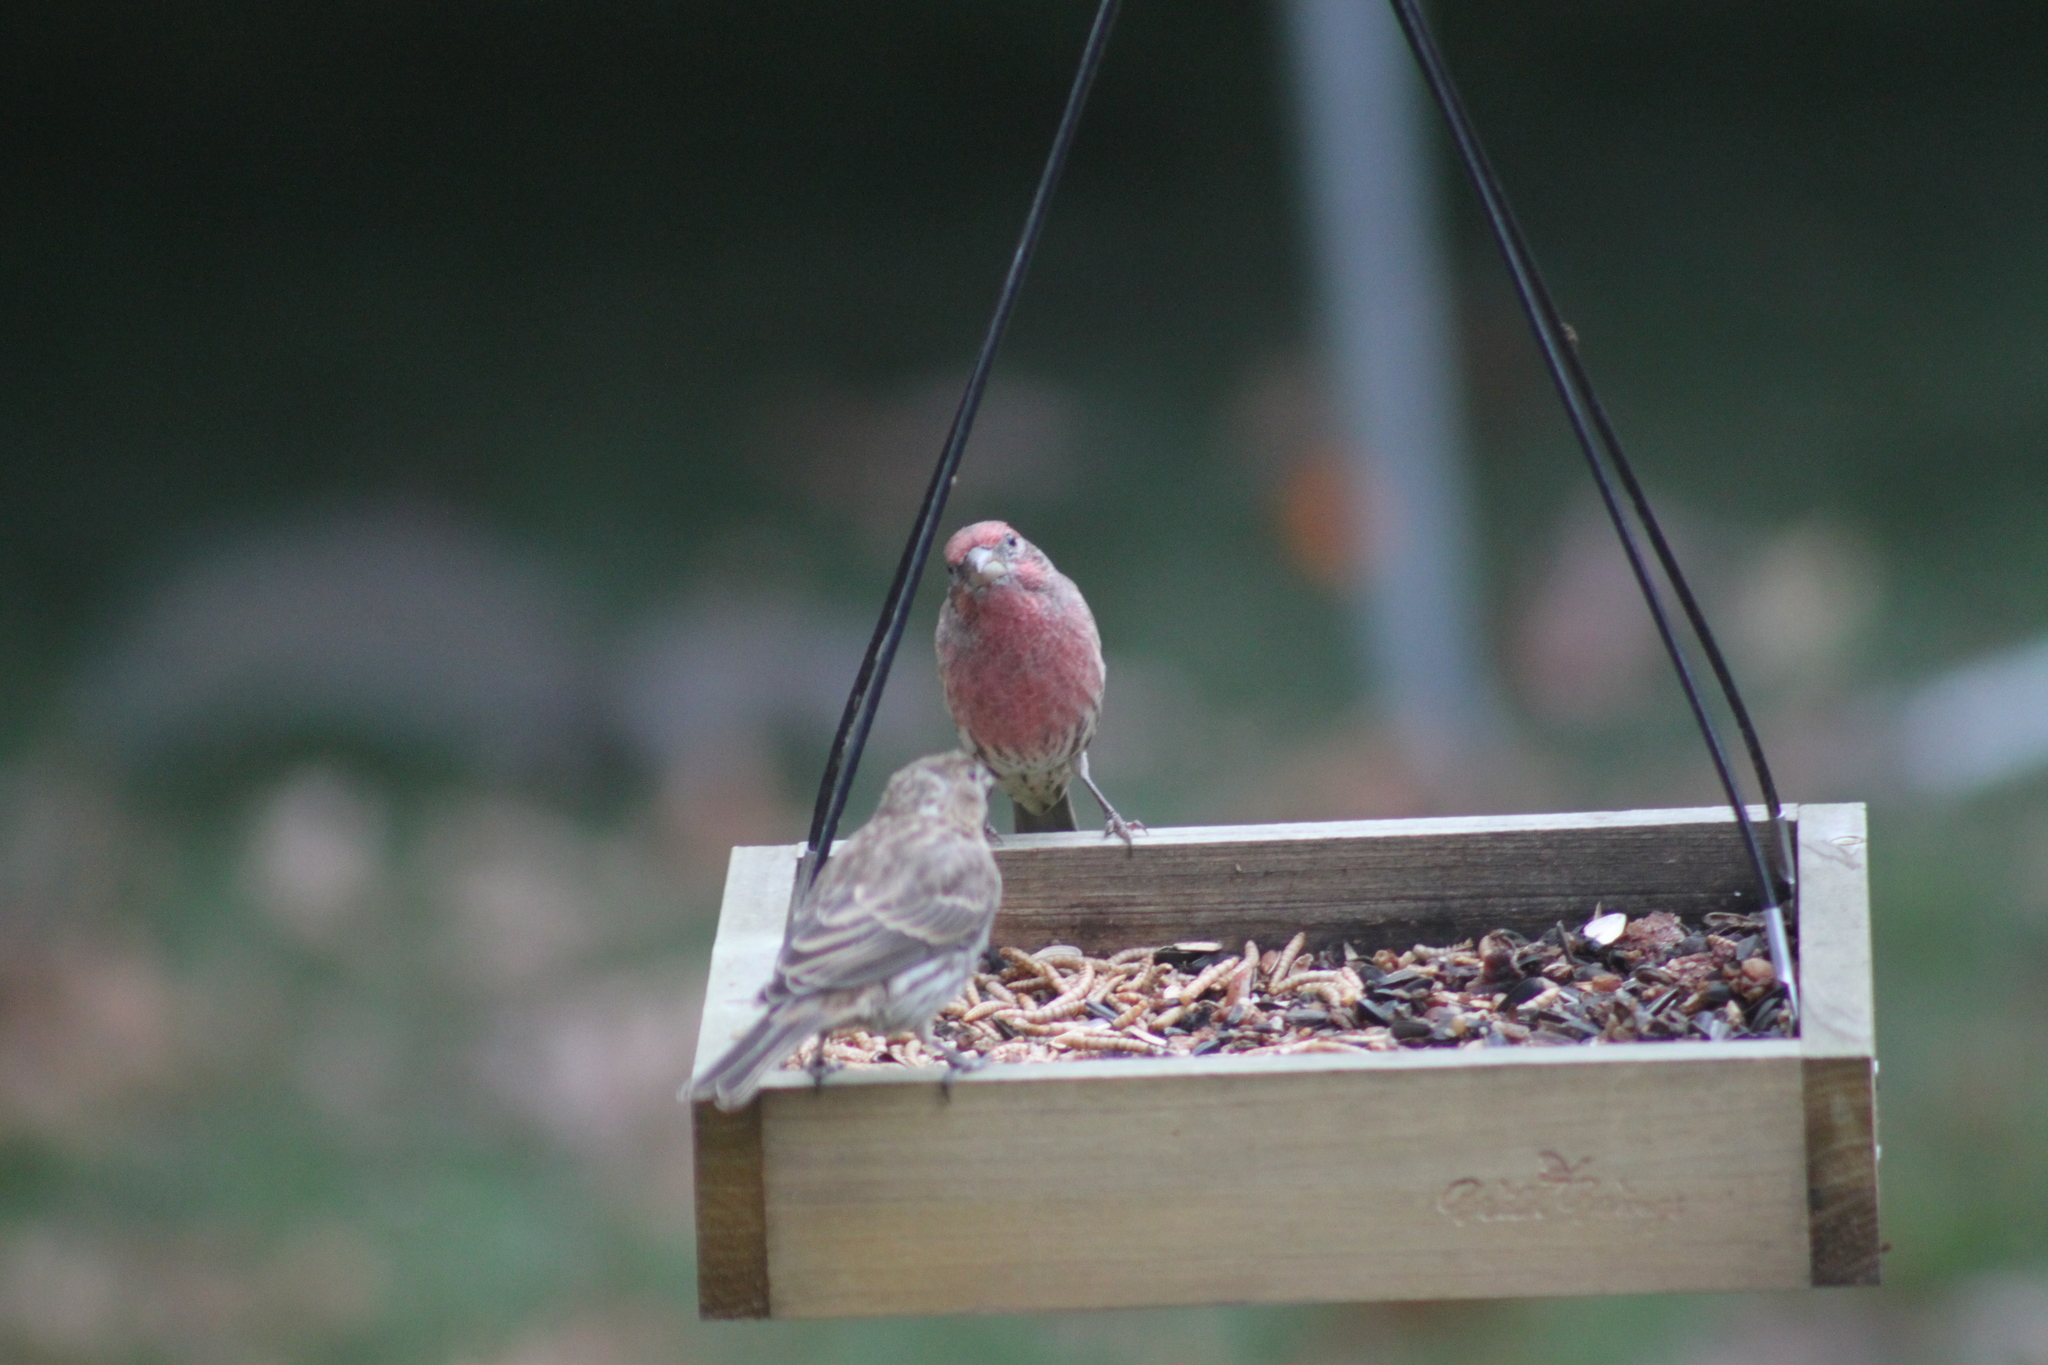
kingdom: Animalia
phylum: Chordata
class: Aves
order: Passeriformes
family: Fringillidae
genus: Haemorhous
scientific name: Haemorhous mexicanus
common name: House finch
